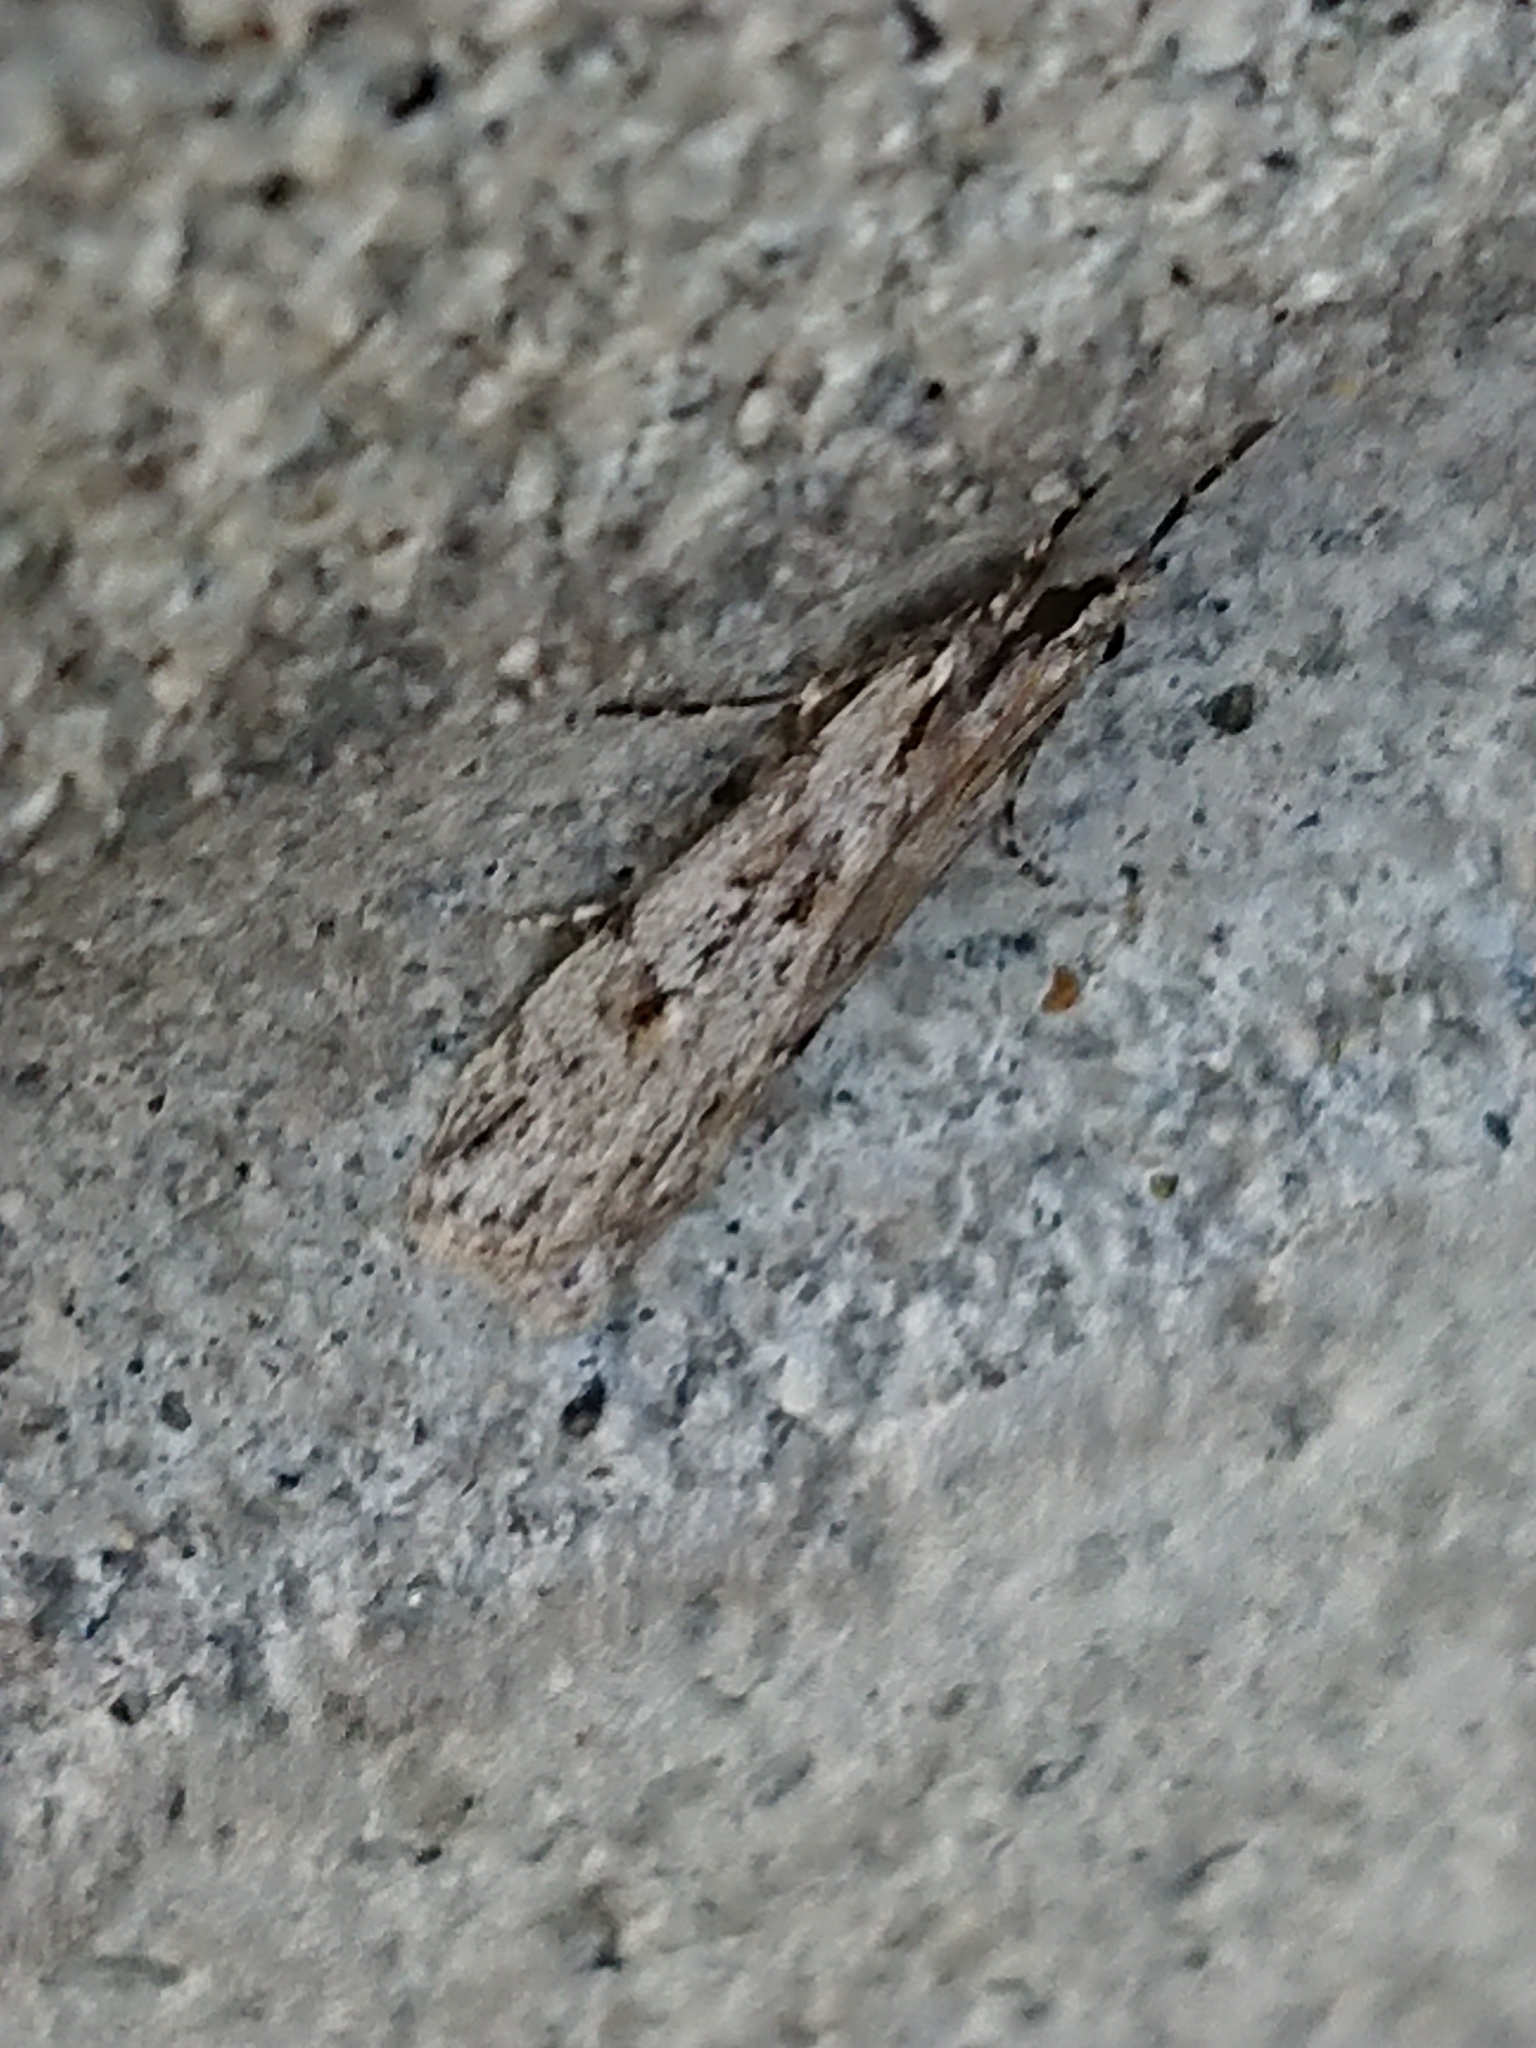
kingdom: Animalia
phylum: Arthropoda
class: Insecta
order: Lepidoptera
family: Crambidae
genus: Scoparia
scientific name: Scoparia chalicodes
